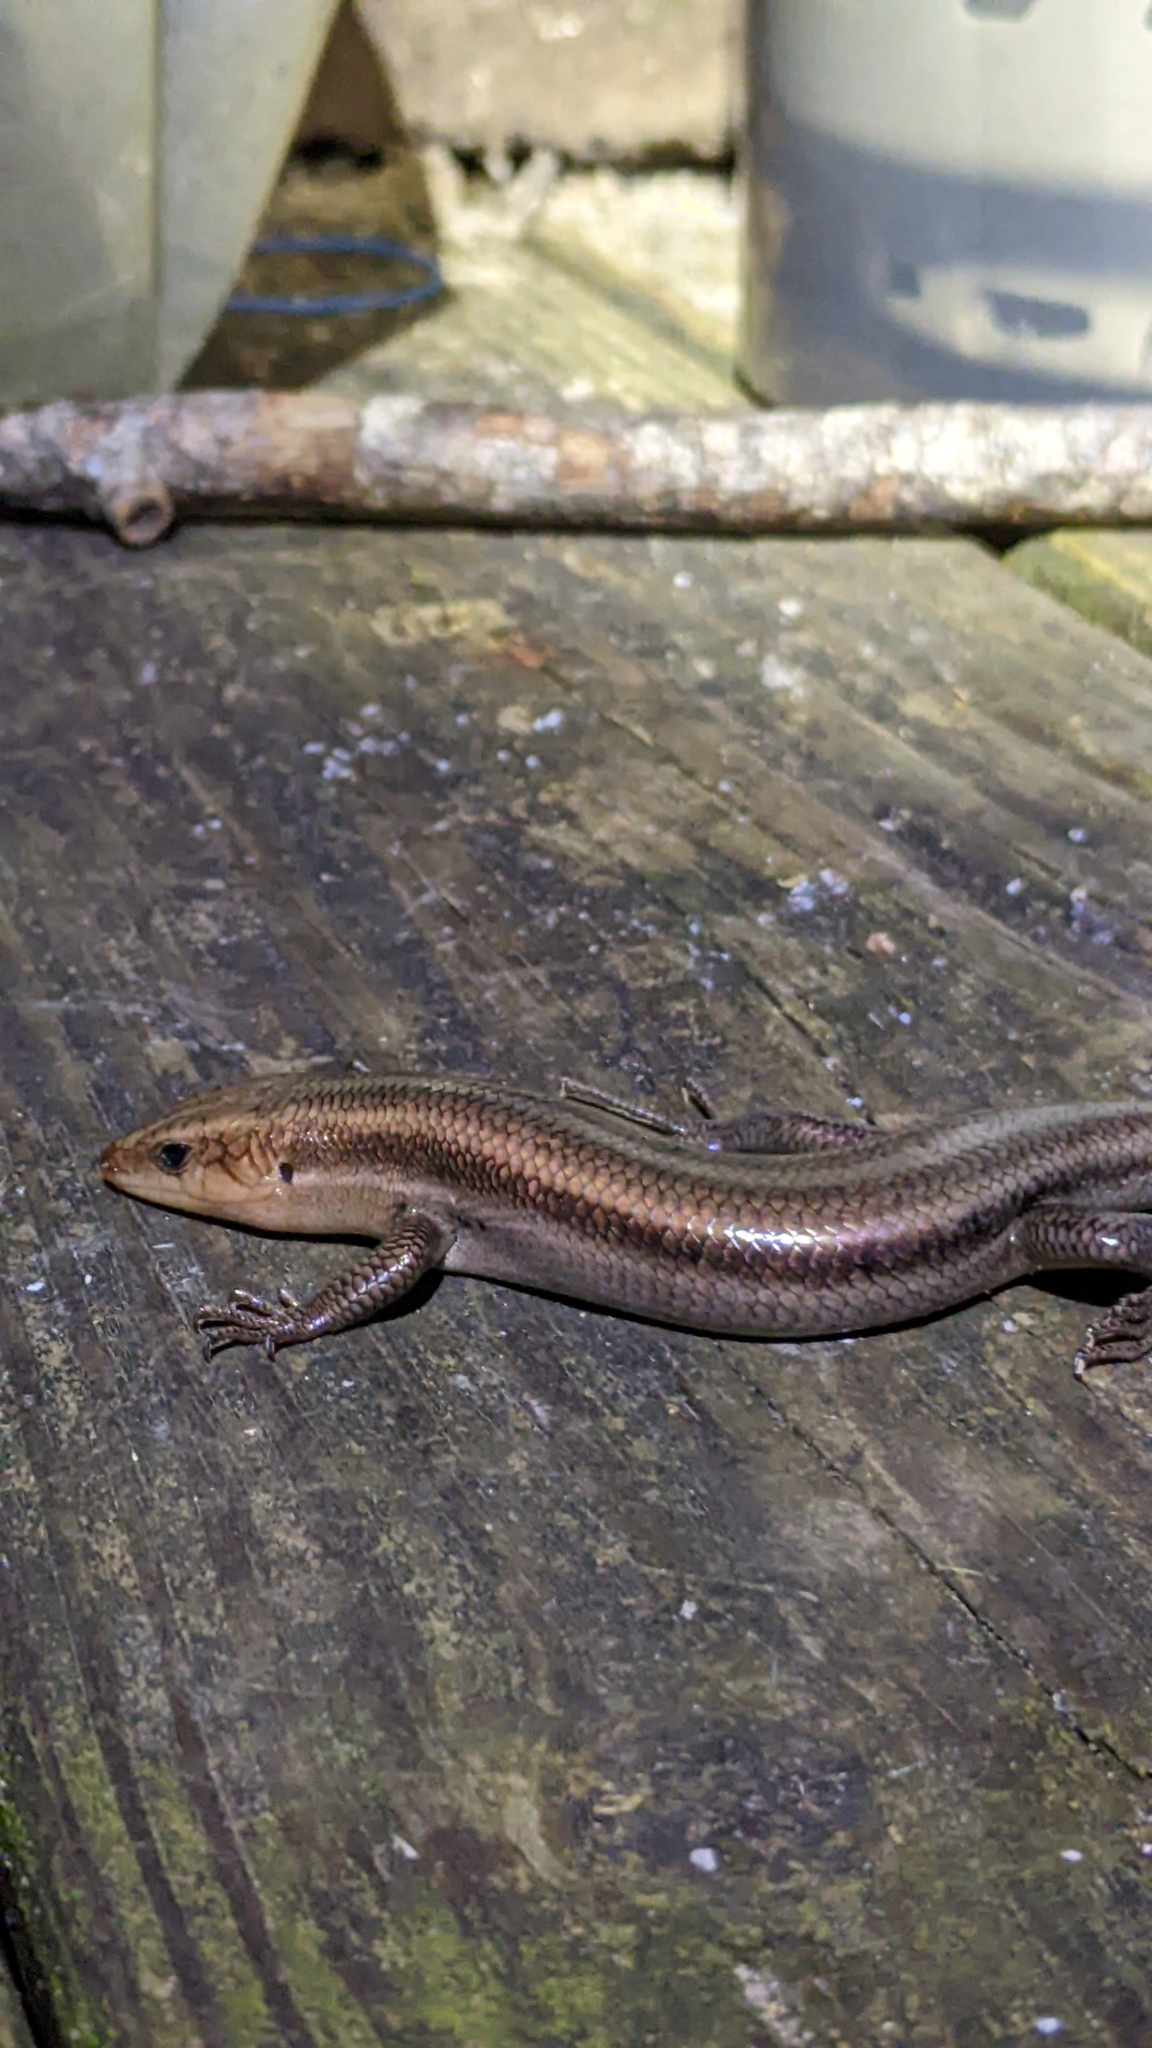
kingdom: Animalia
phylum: Chordata
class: Squamata
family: Scincidae
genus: Plestiodon
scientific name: Plestiodon fasciatus
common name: Five-lined skink
